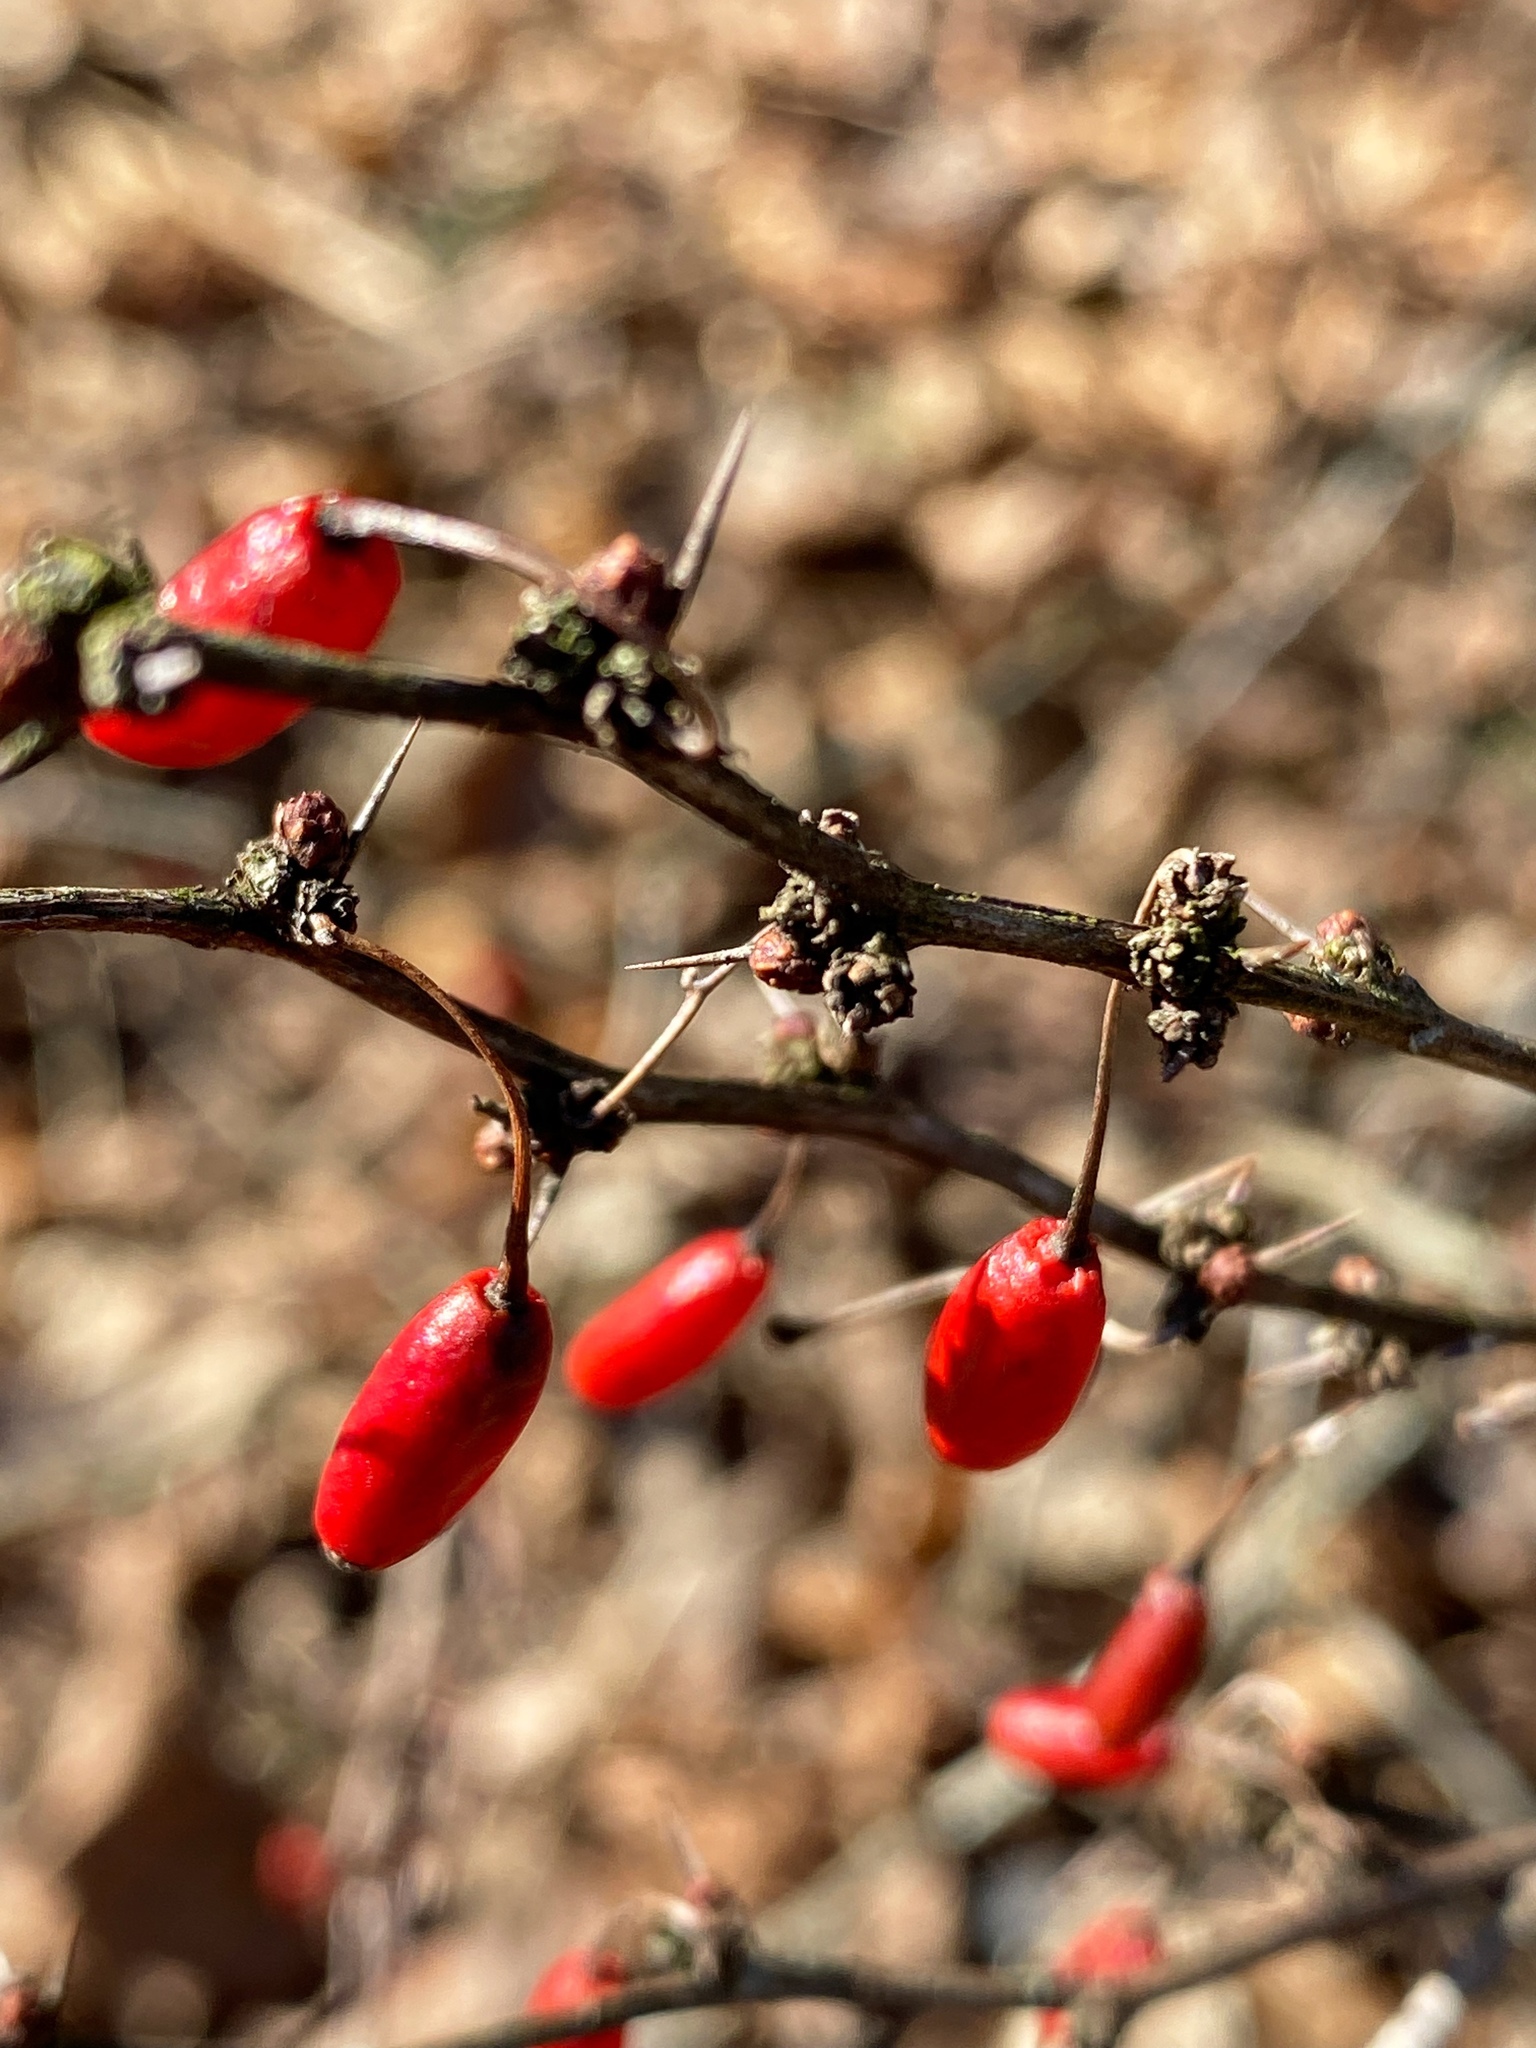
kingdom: Plantae
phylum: Tracheophyta
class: Magnoliopsida
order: Ranunculales
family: Berberidaceae
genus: Berberis
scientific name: Berberis thunbergii
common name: Japanese barberry
